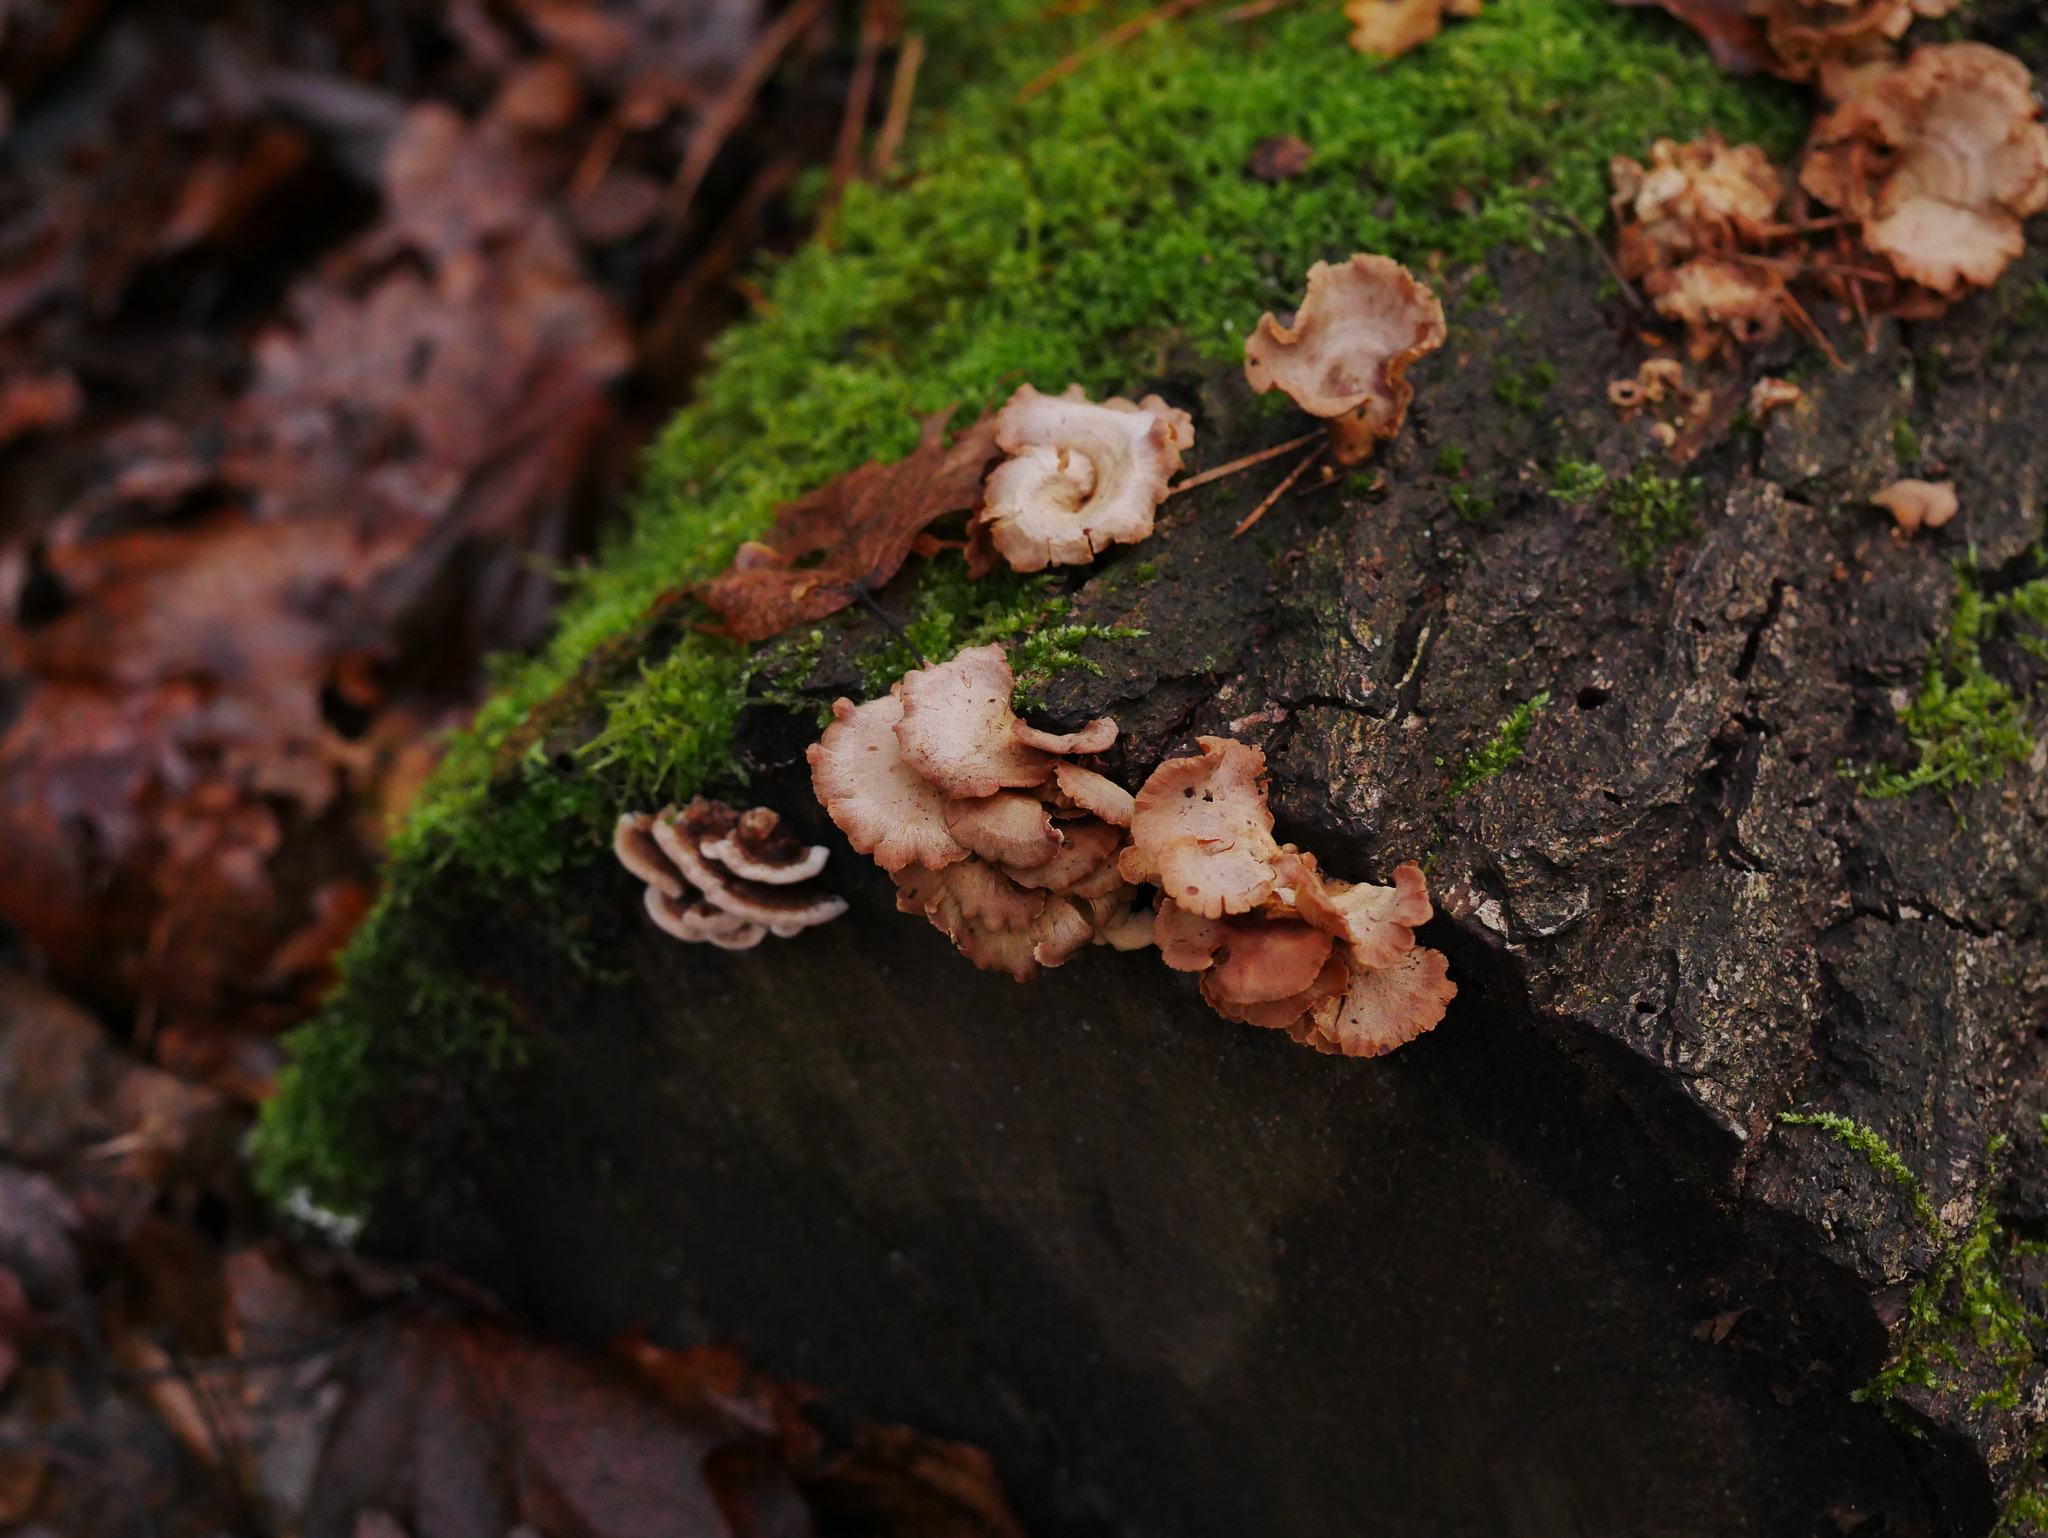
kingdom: Fungi
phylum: Basidiomycota
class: Agaricomycetes
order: Agaricales
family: Mycenaceae
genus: Panellus
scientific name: Panellus stipticus
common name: Bitter oysterling
